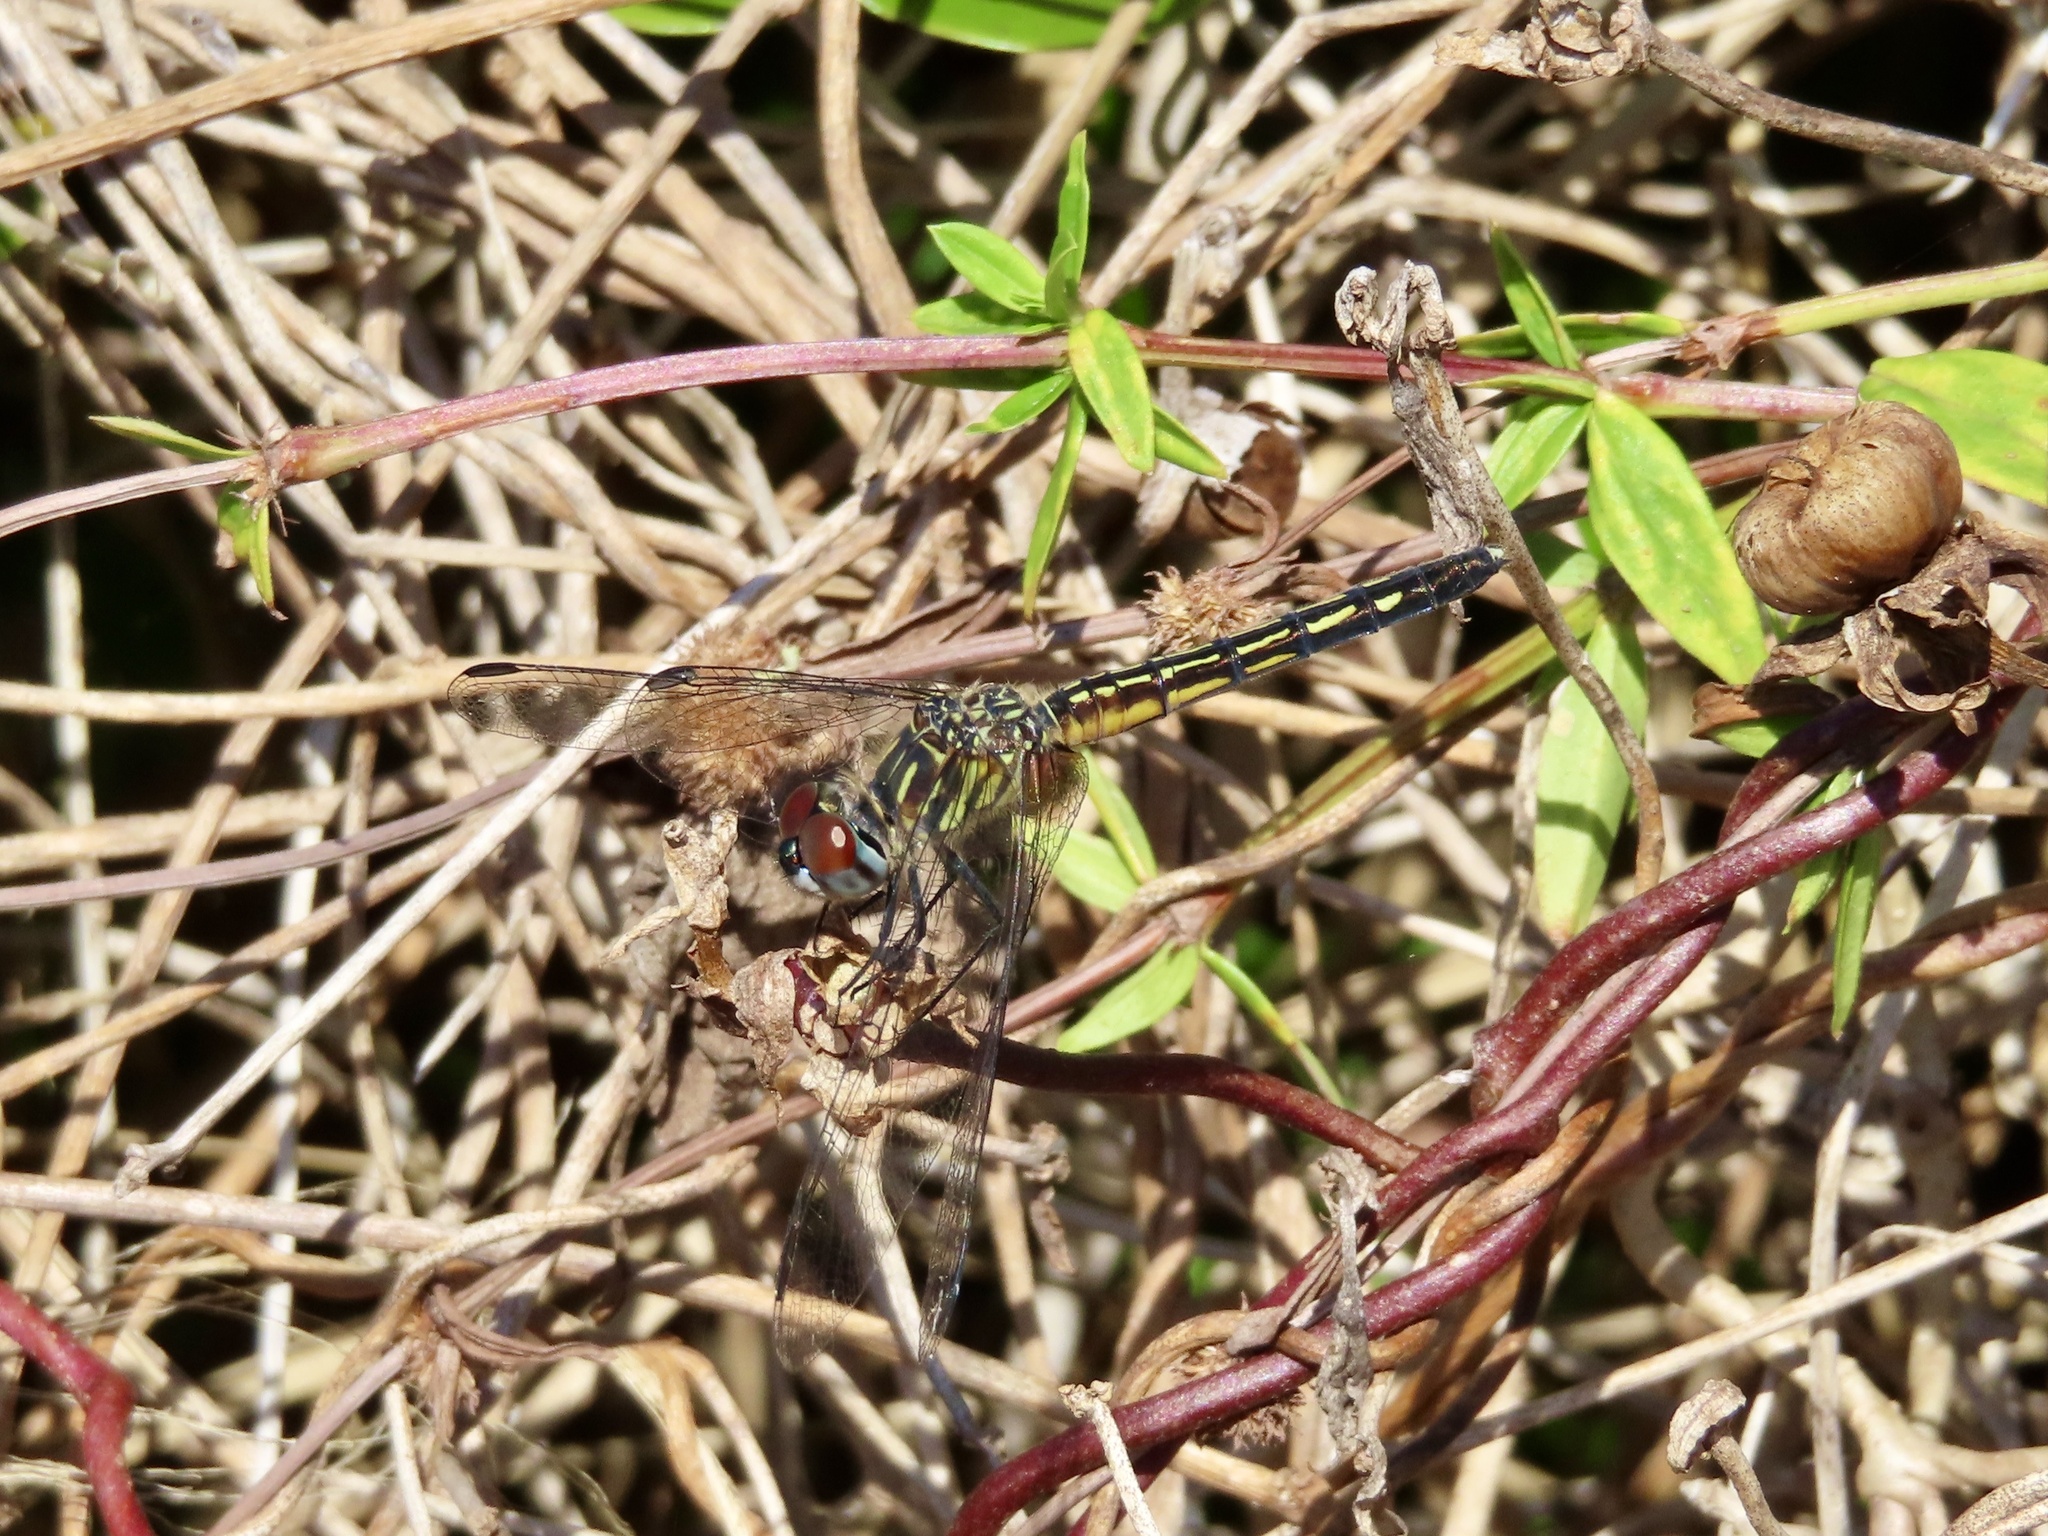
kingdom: Animalia
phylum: Arthropoda
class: Insecta
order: Odonata
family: Libellulidae
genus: Pachydiplax
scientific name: Pachydiplax longipennis
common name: Blue dasher
